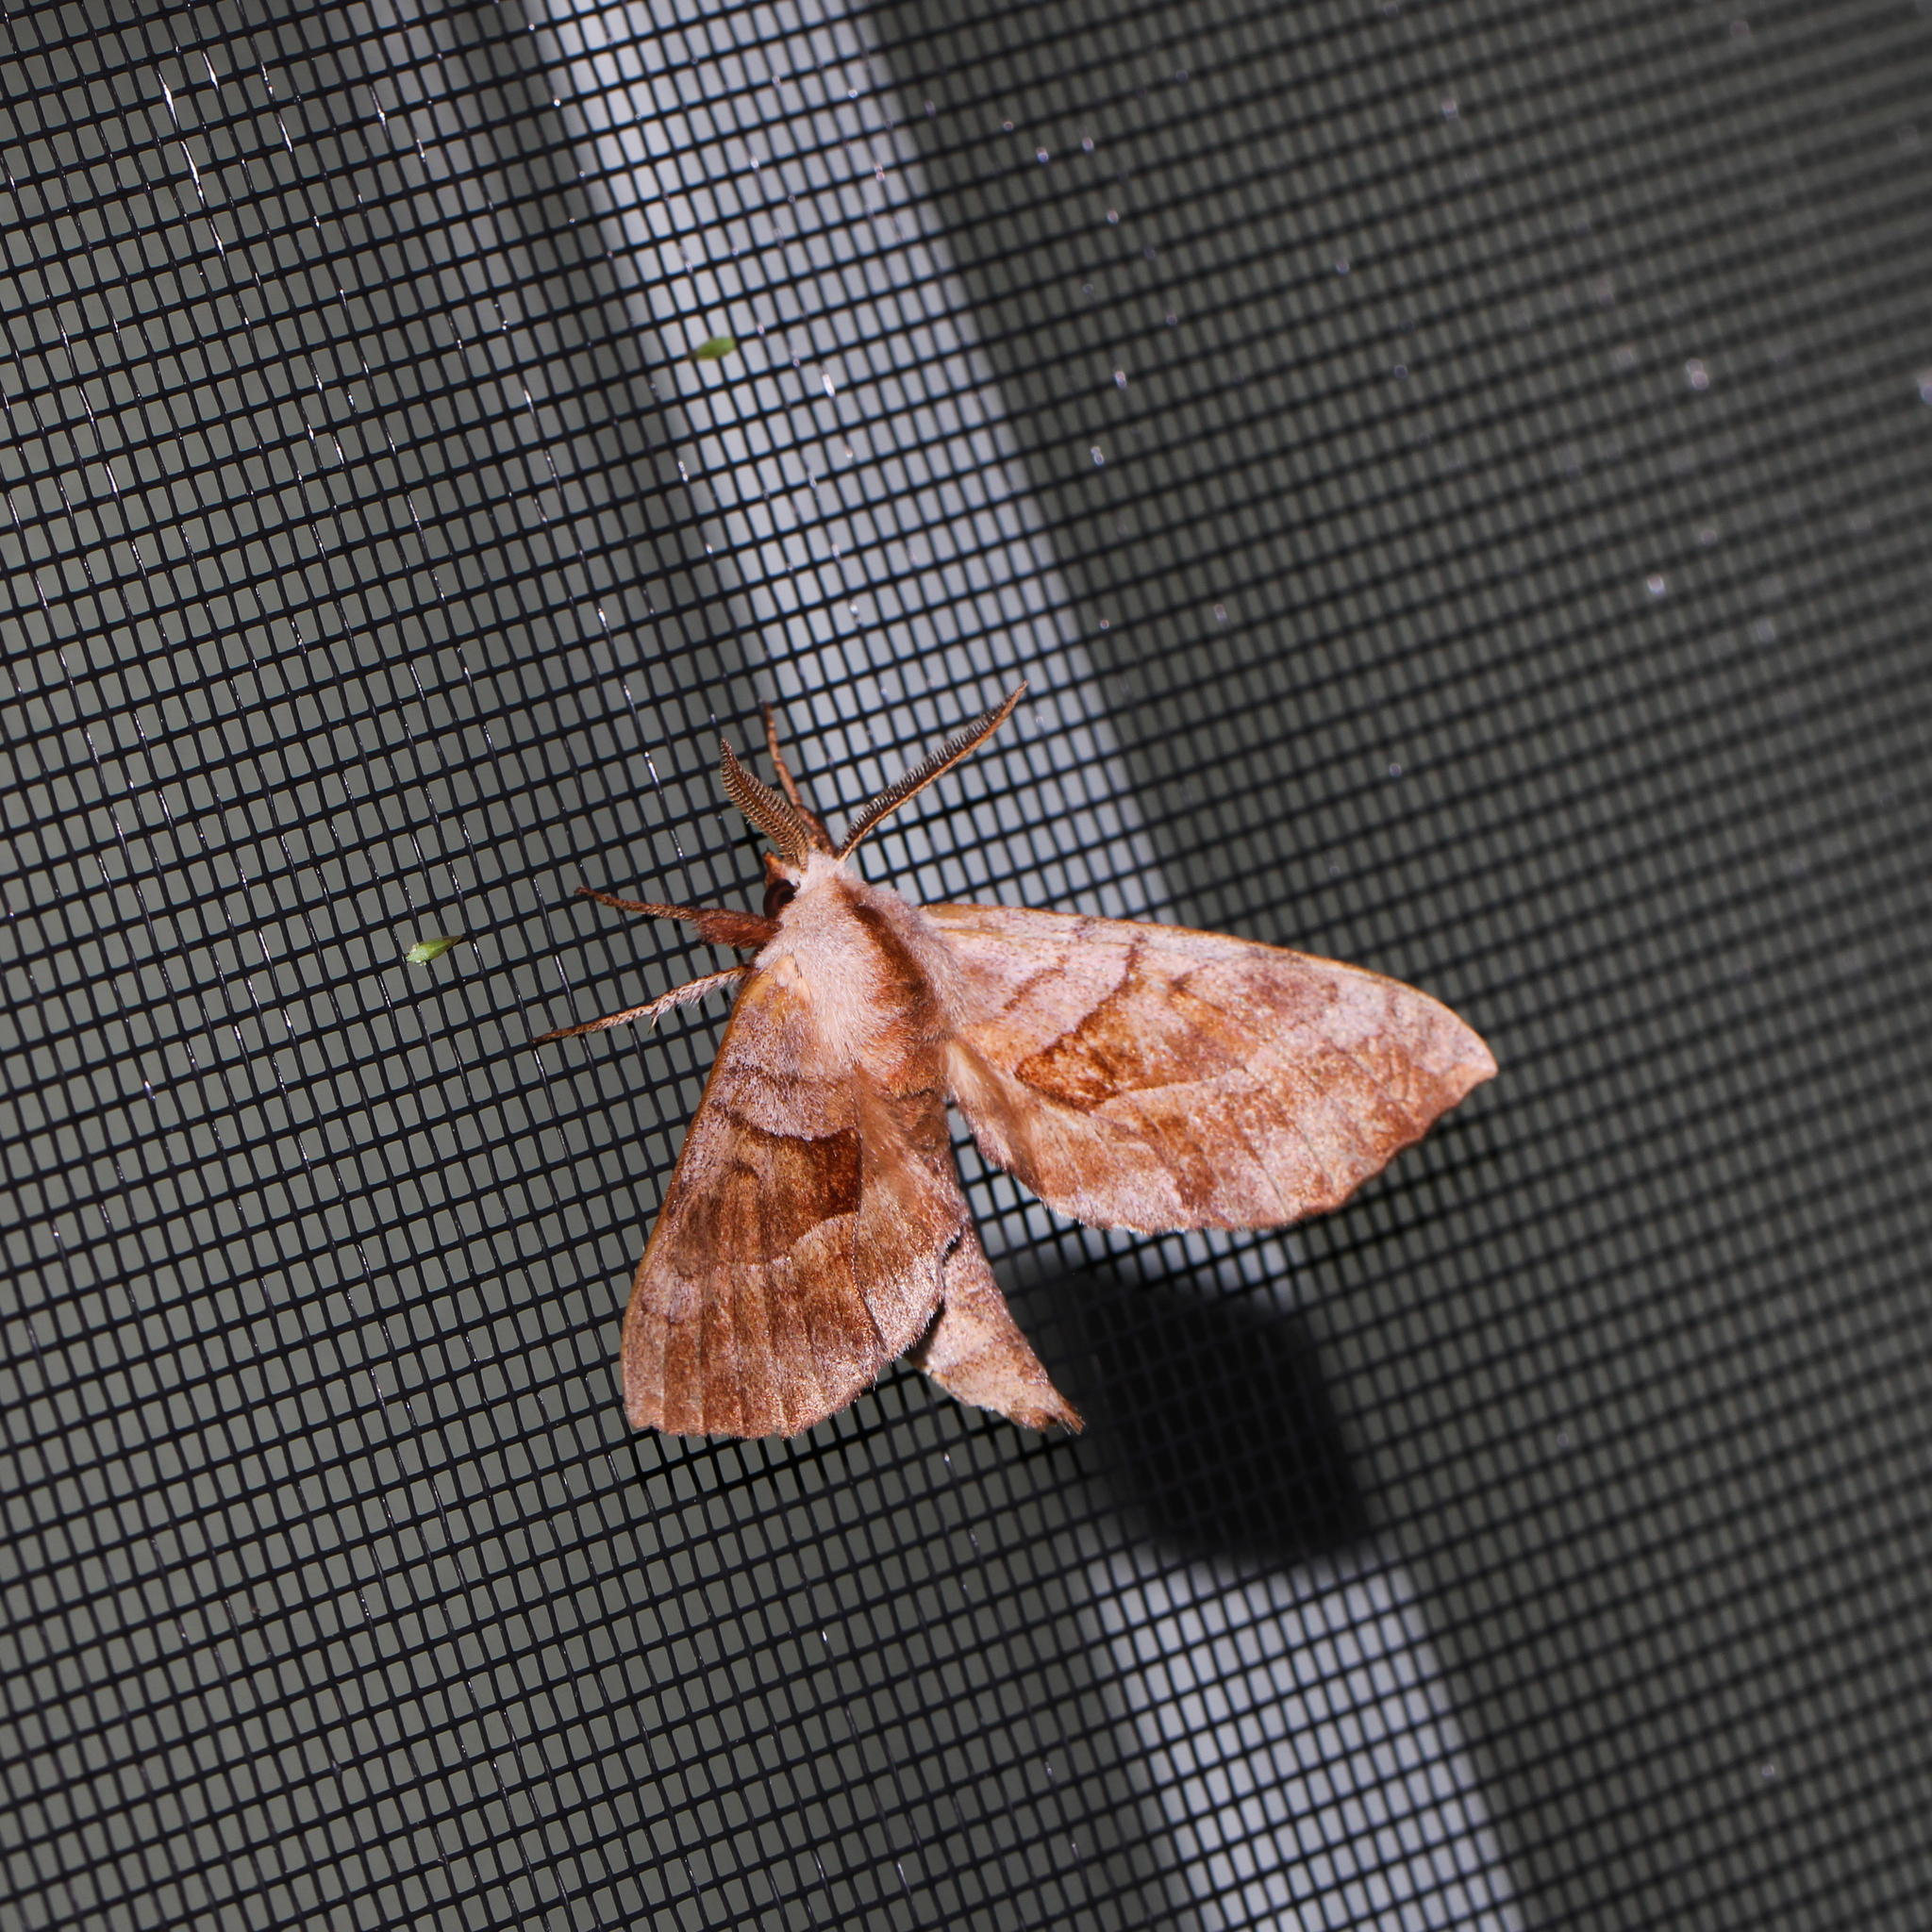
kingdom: Animalia
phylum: Arthropoda
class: Insecta
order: Lepidoptera
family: Sphingidae
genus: Amorpha
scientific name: Amorpha juglandis
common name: Walnut sphinx
